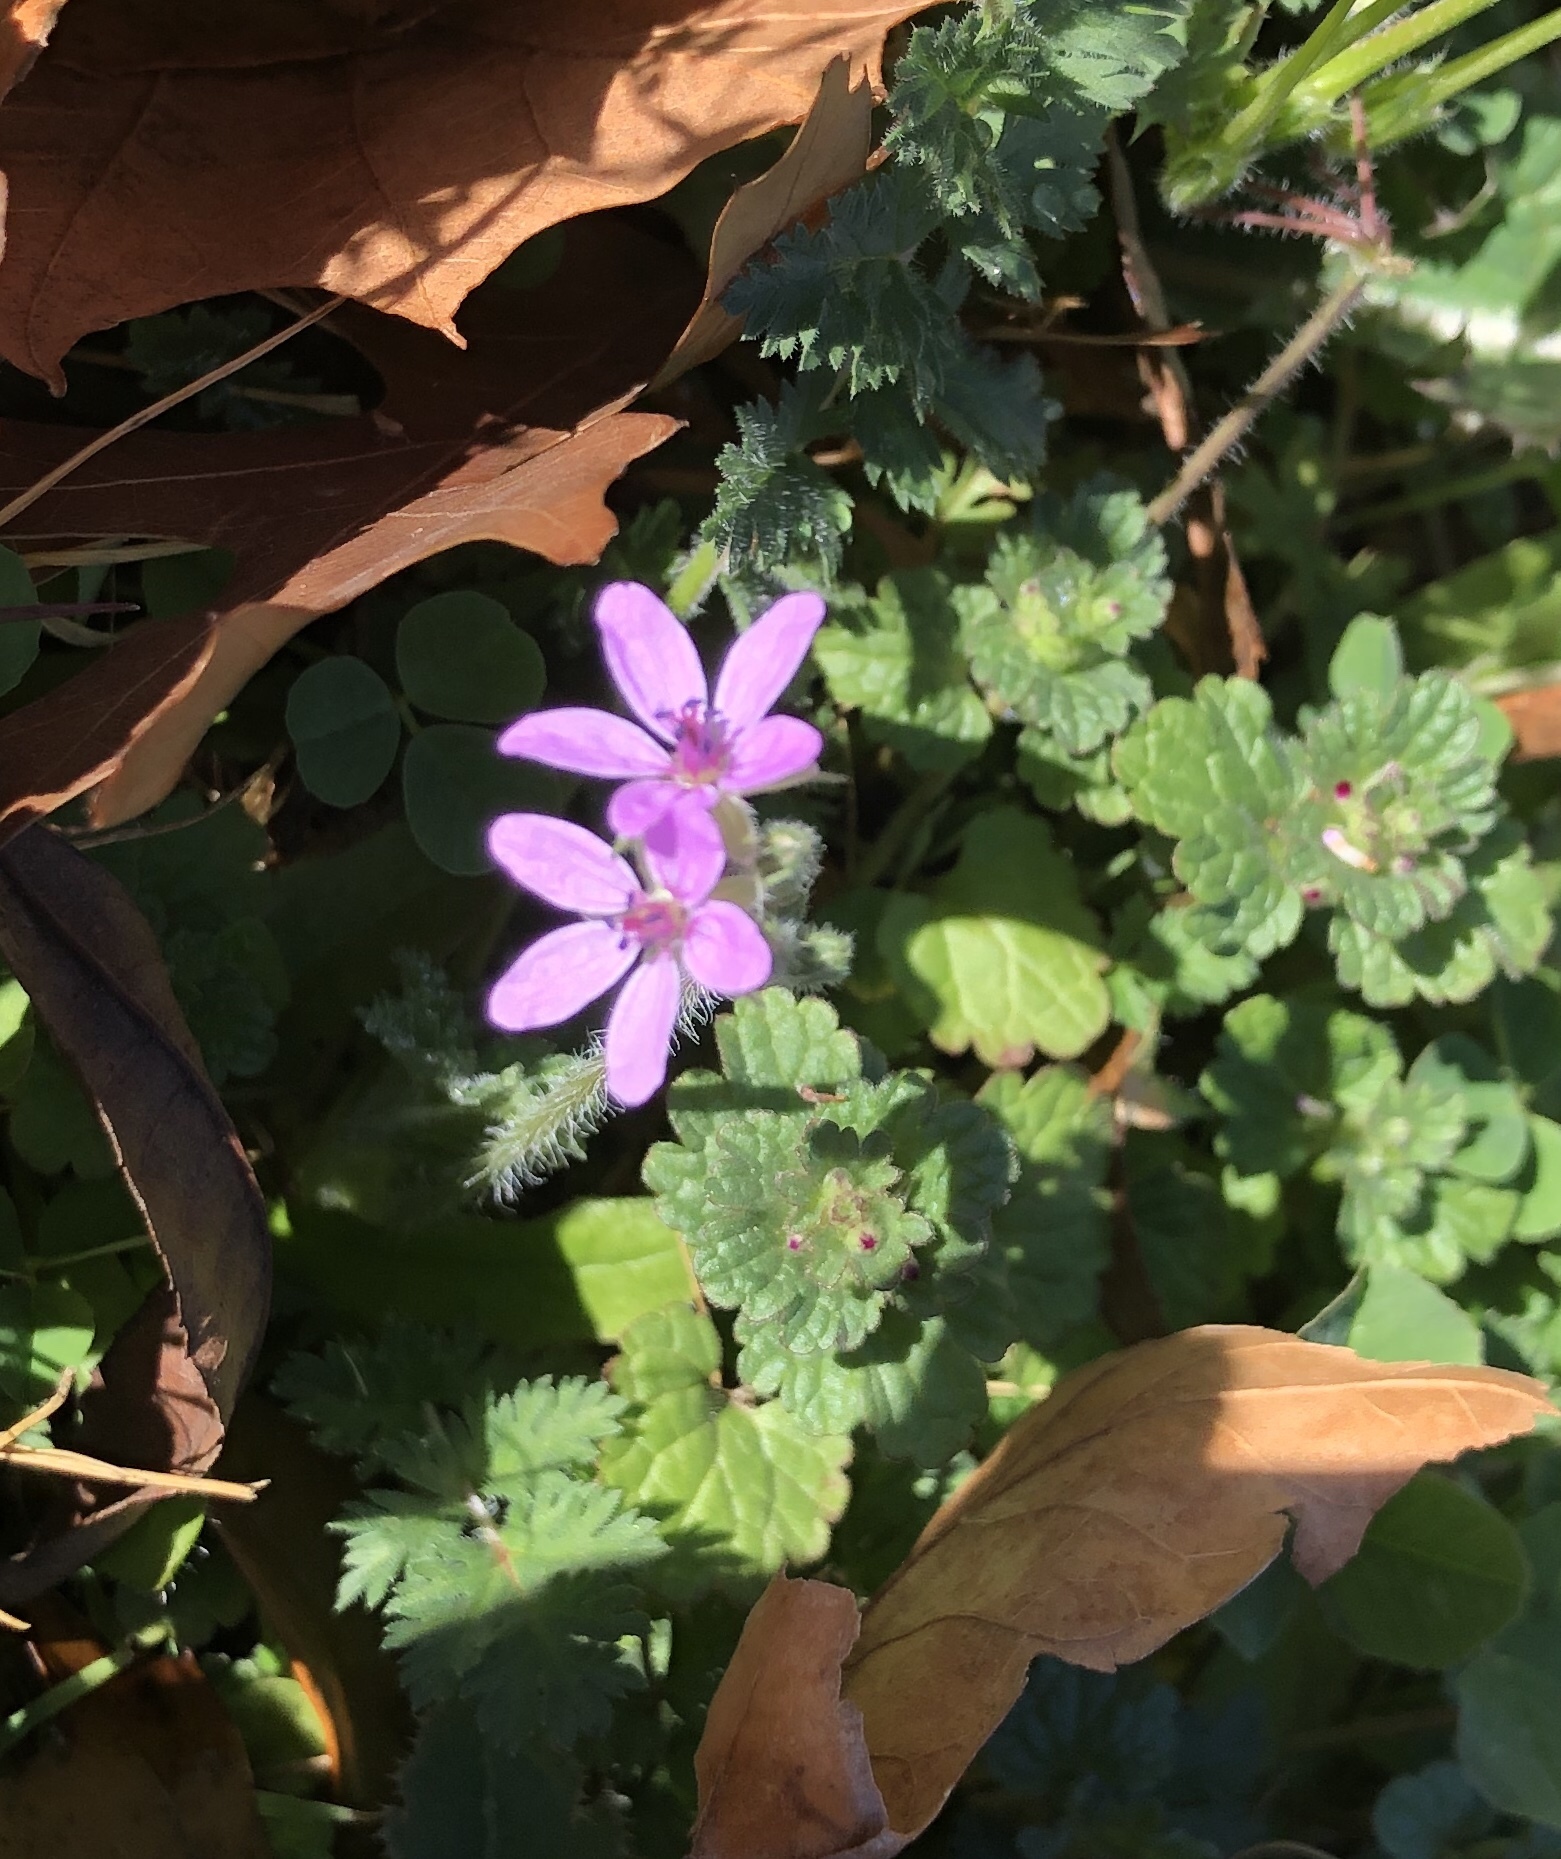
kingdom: Plantae
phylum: Tracheophyta
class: Magnoliopsida
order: Geraniales
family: Geraniaceae
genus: Erodium
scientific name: Erodium cicutarium
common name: Common stork's-bill
